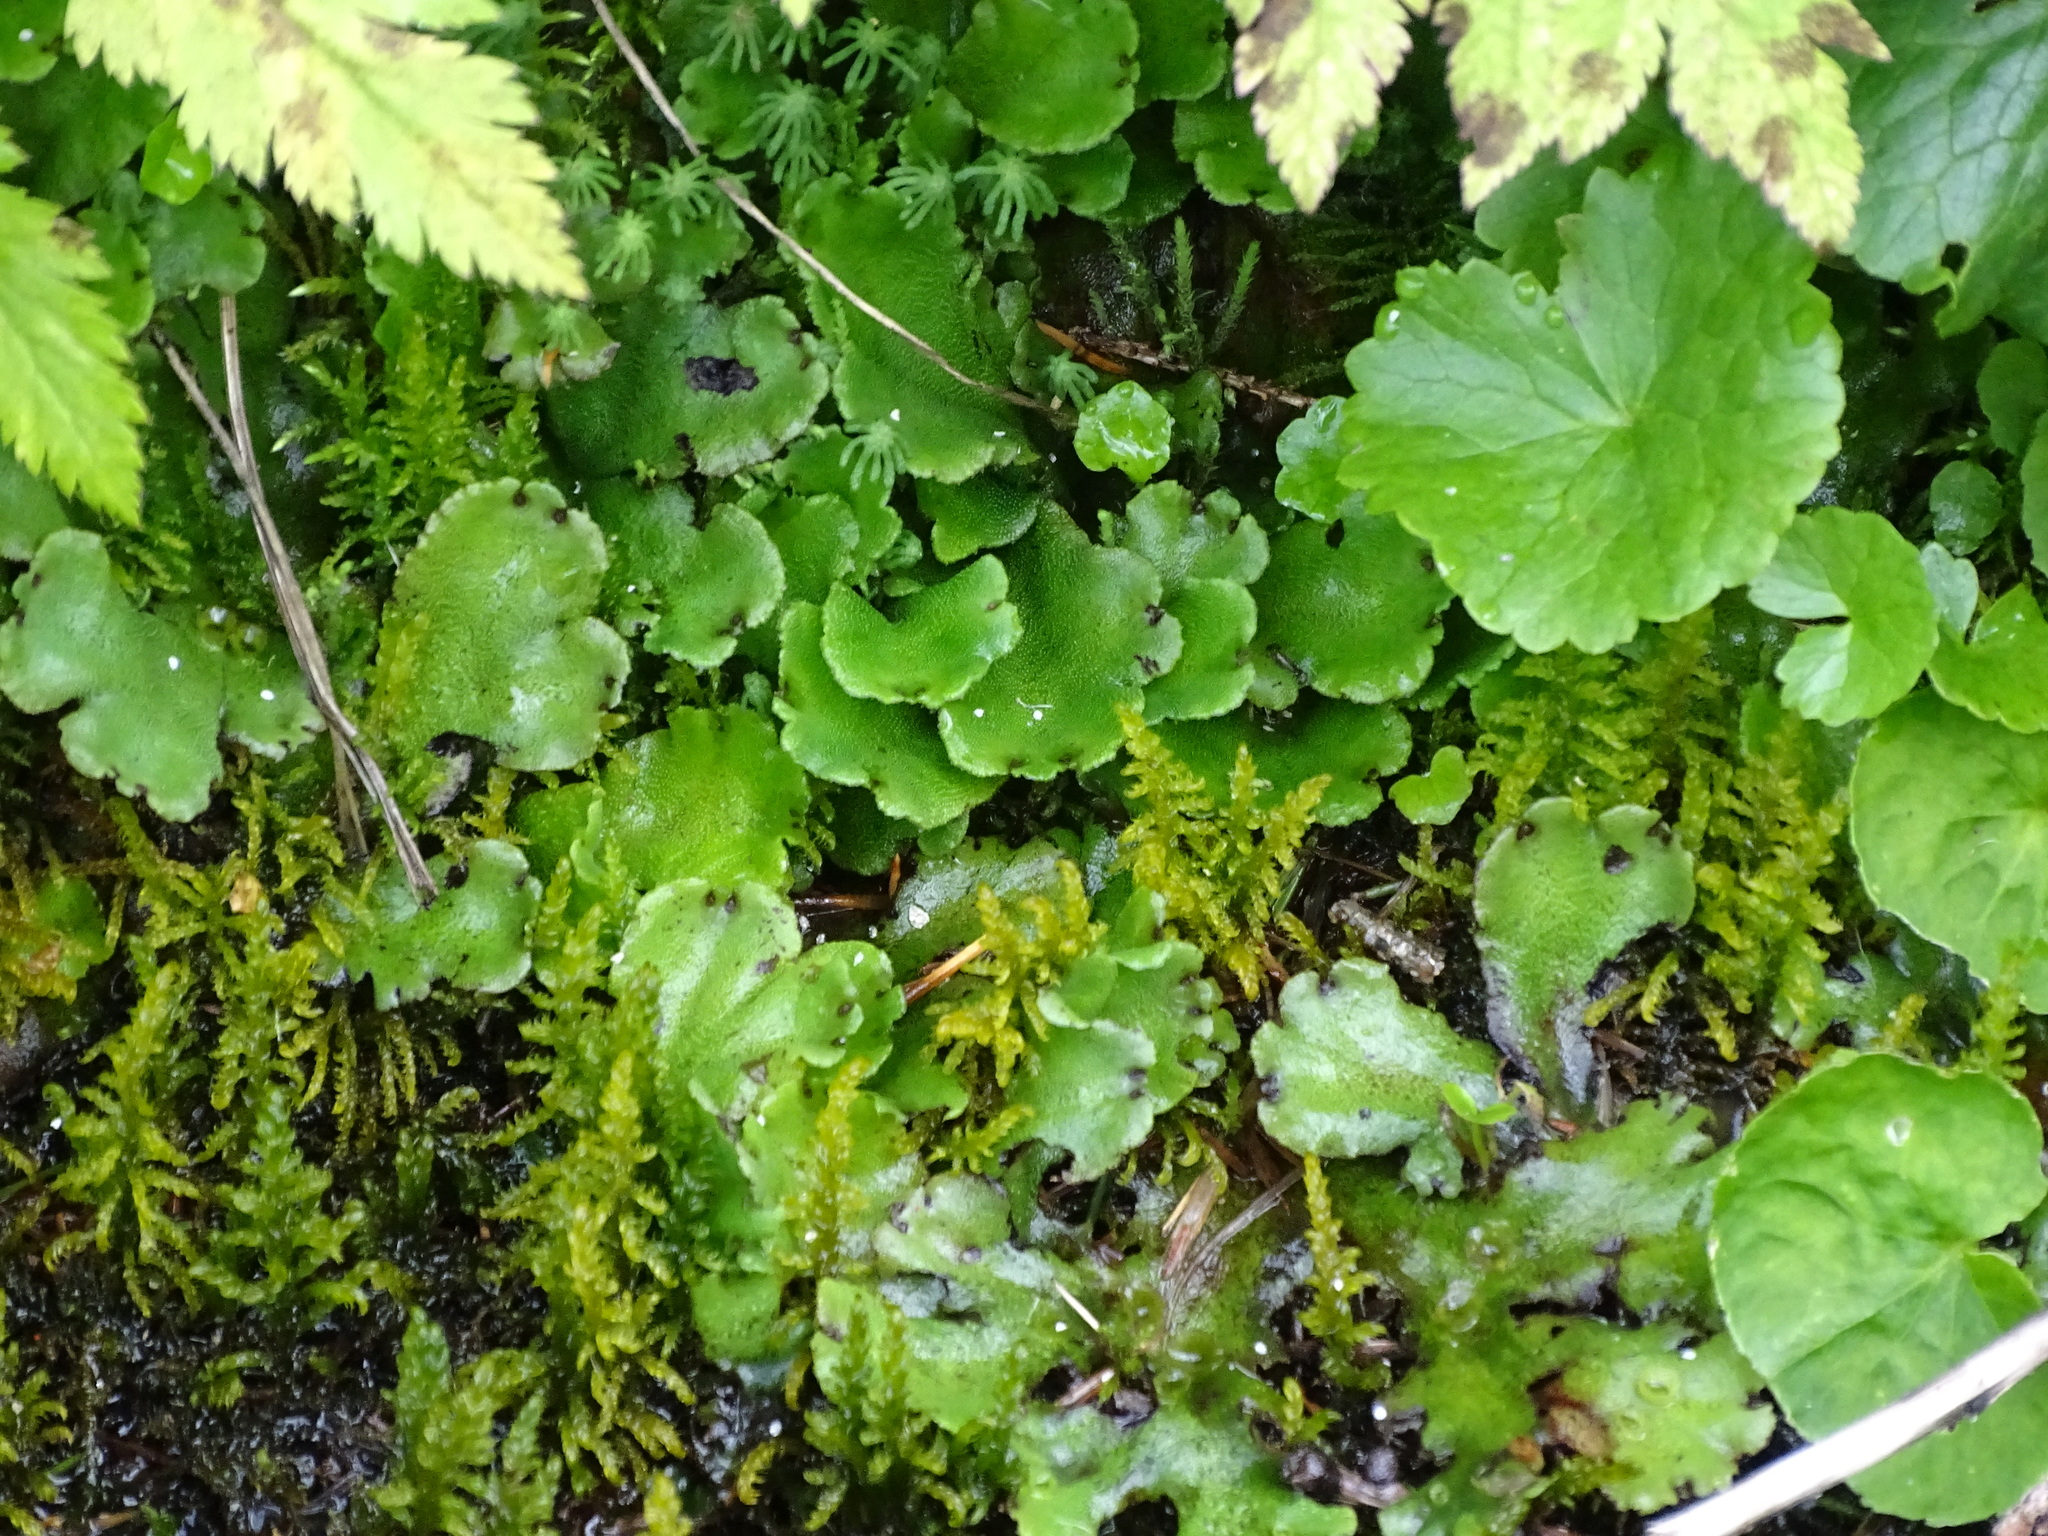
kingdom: Plantae
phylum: Marchantiophyta
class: Marchantiopsida
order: Marchantiales
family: Marchantiaceae
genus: Marchantia
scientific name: Marchantia polymorpha
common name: Common liverwort
